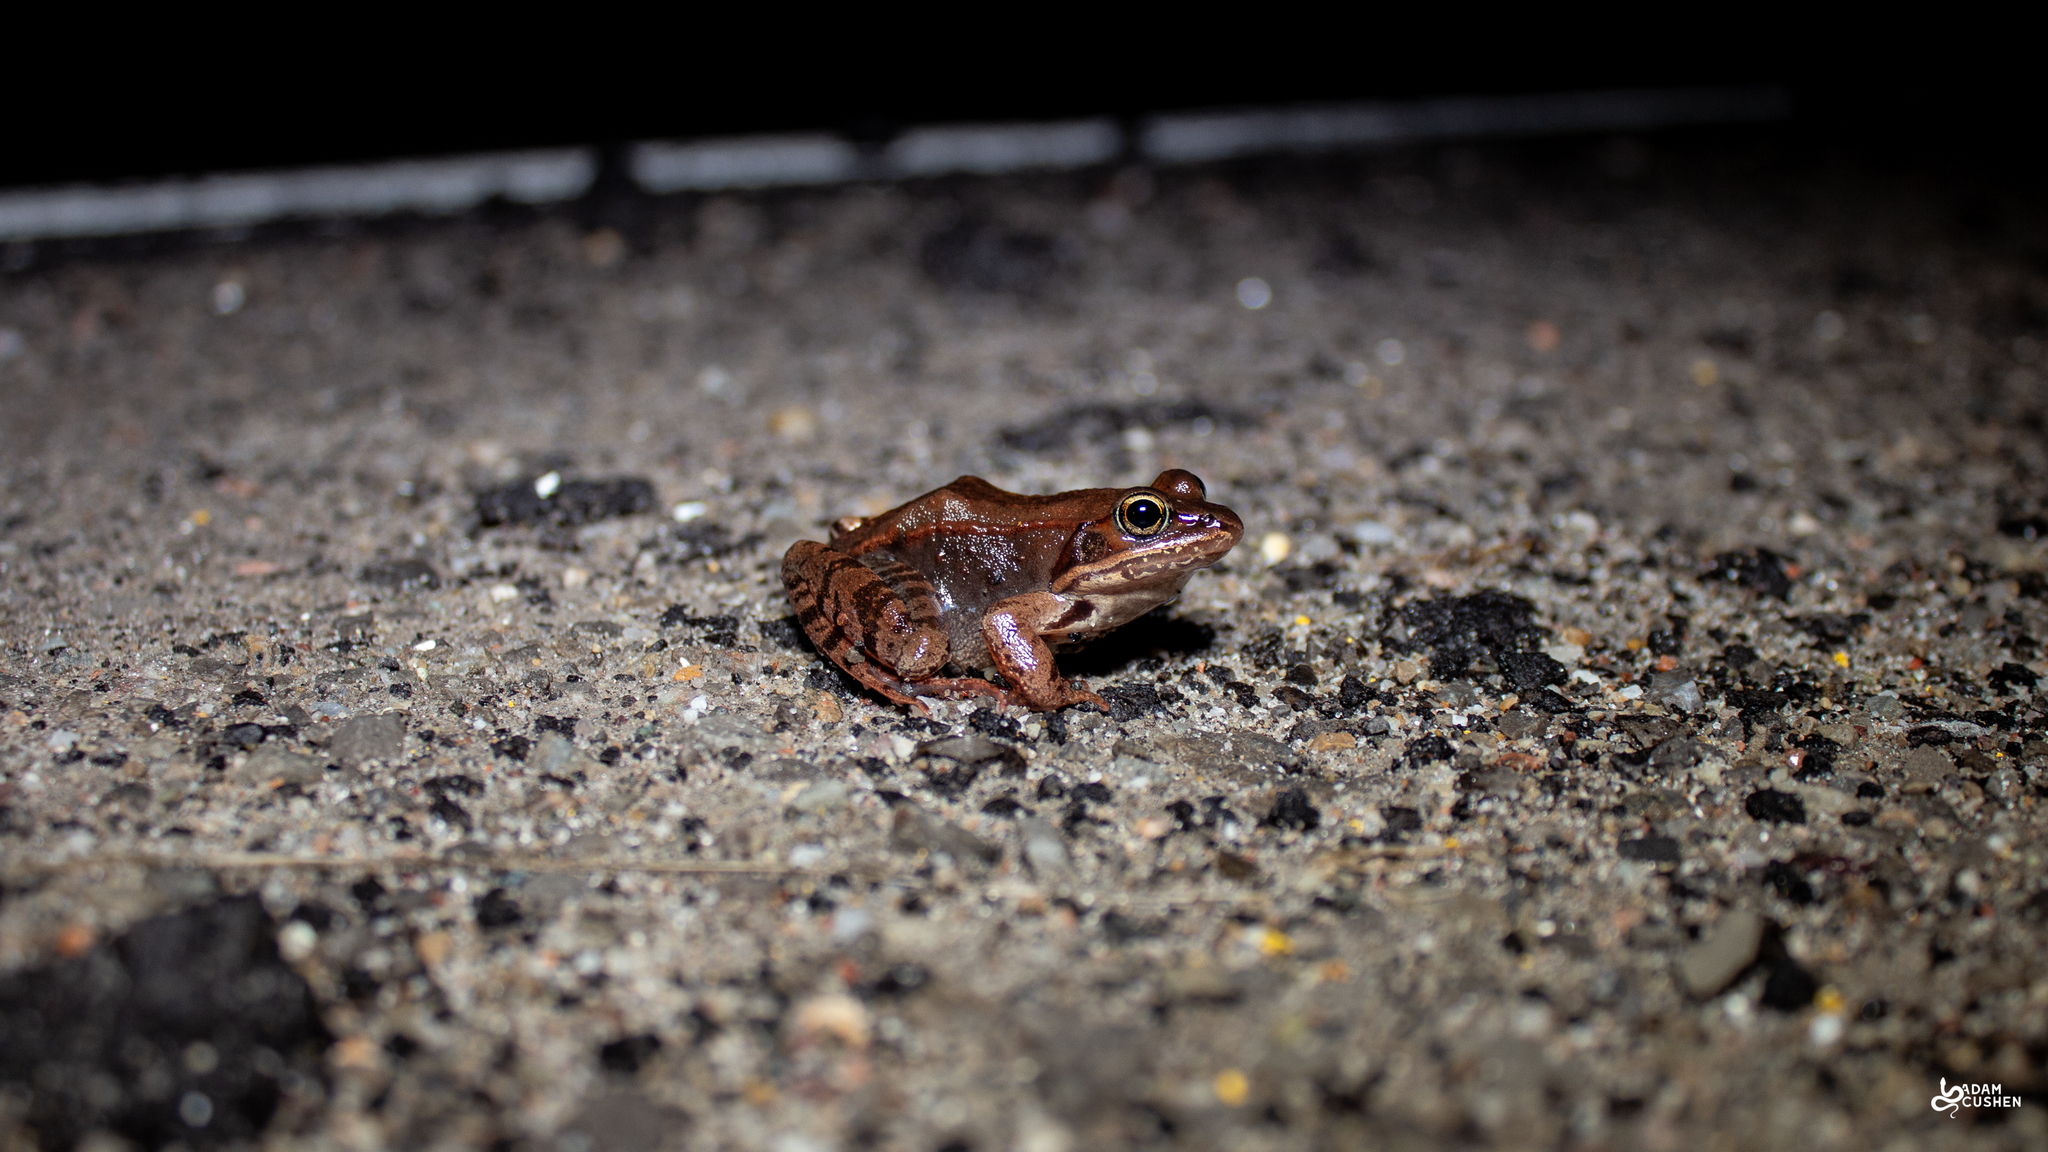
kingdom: Animalia
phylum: Chordata
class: Amphibia
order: Anura
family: Ranidae
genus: Lithobates
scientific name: Lithobates sylvaticus
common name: Wood frog
